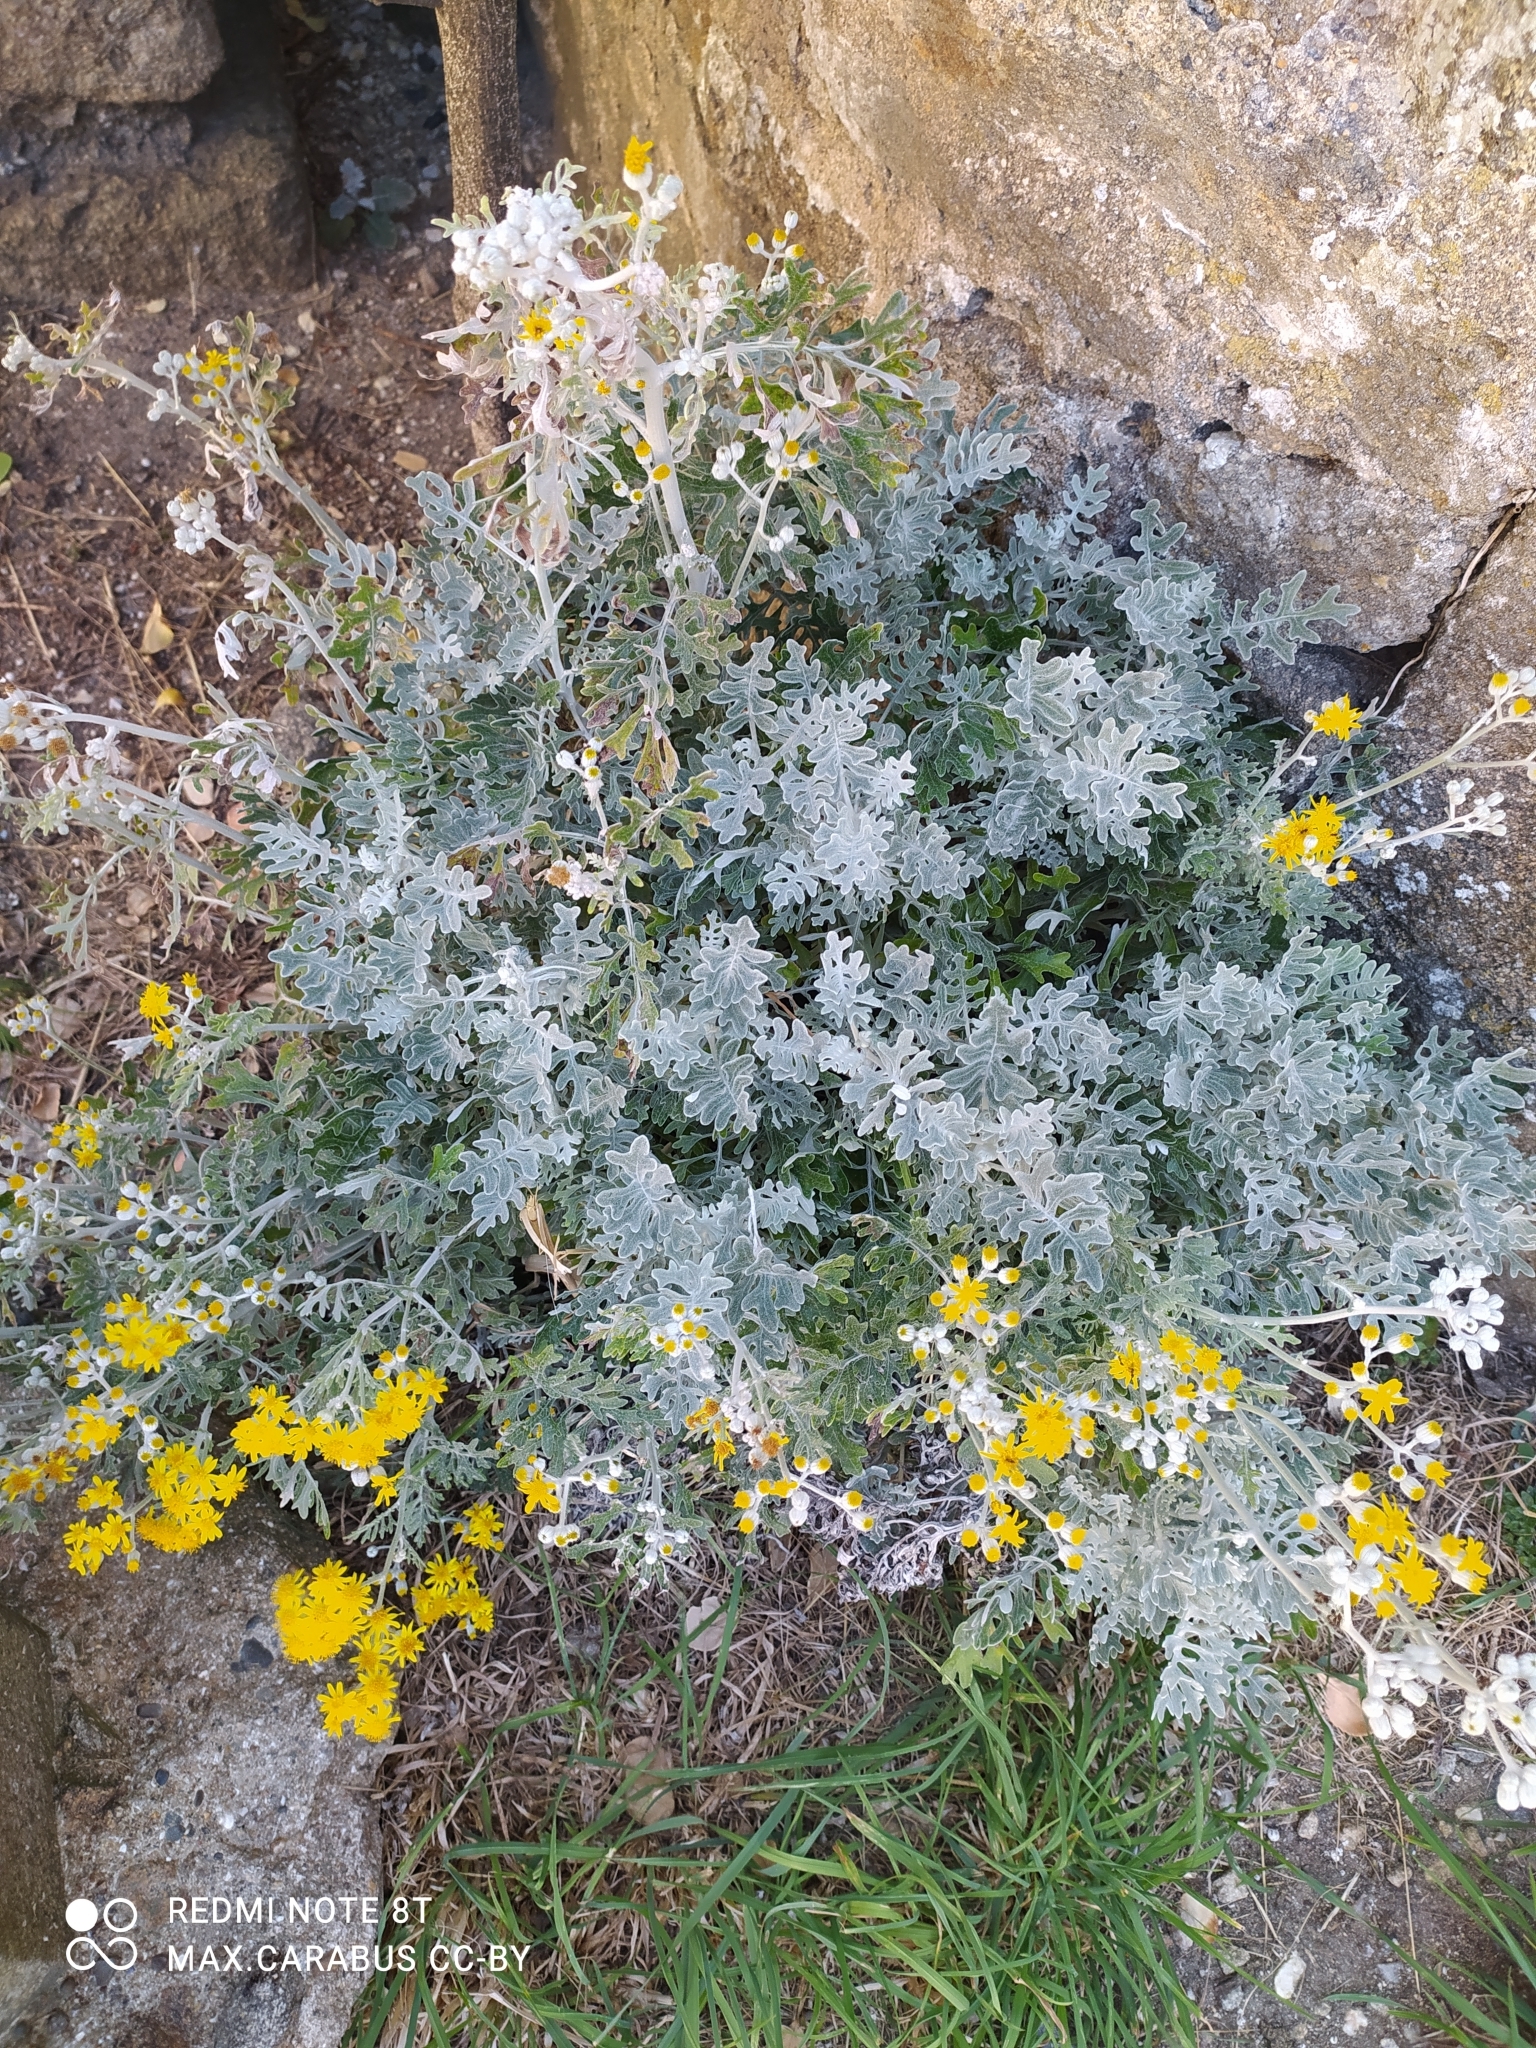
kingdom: Plantae
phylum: Tracheophyta
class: Magnoliopsida
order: Asterales
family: Asteraceae
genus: Jacobaea
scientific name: Jacobaea maritima
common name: Silver ragwort
